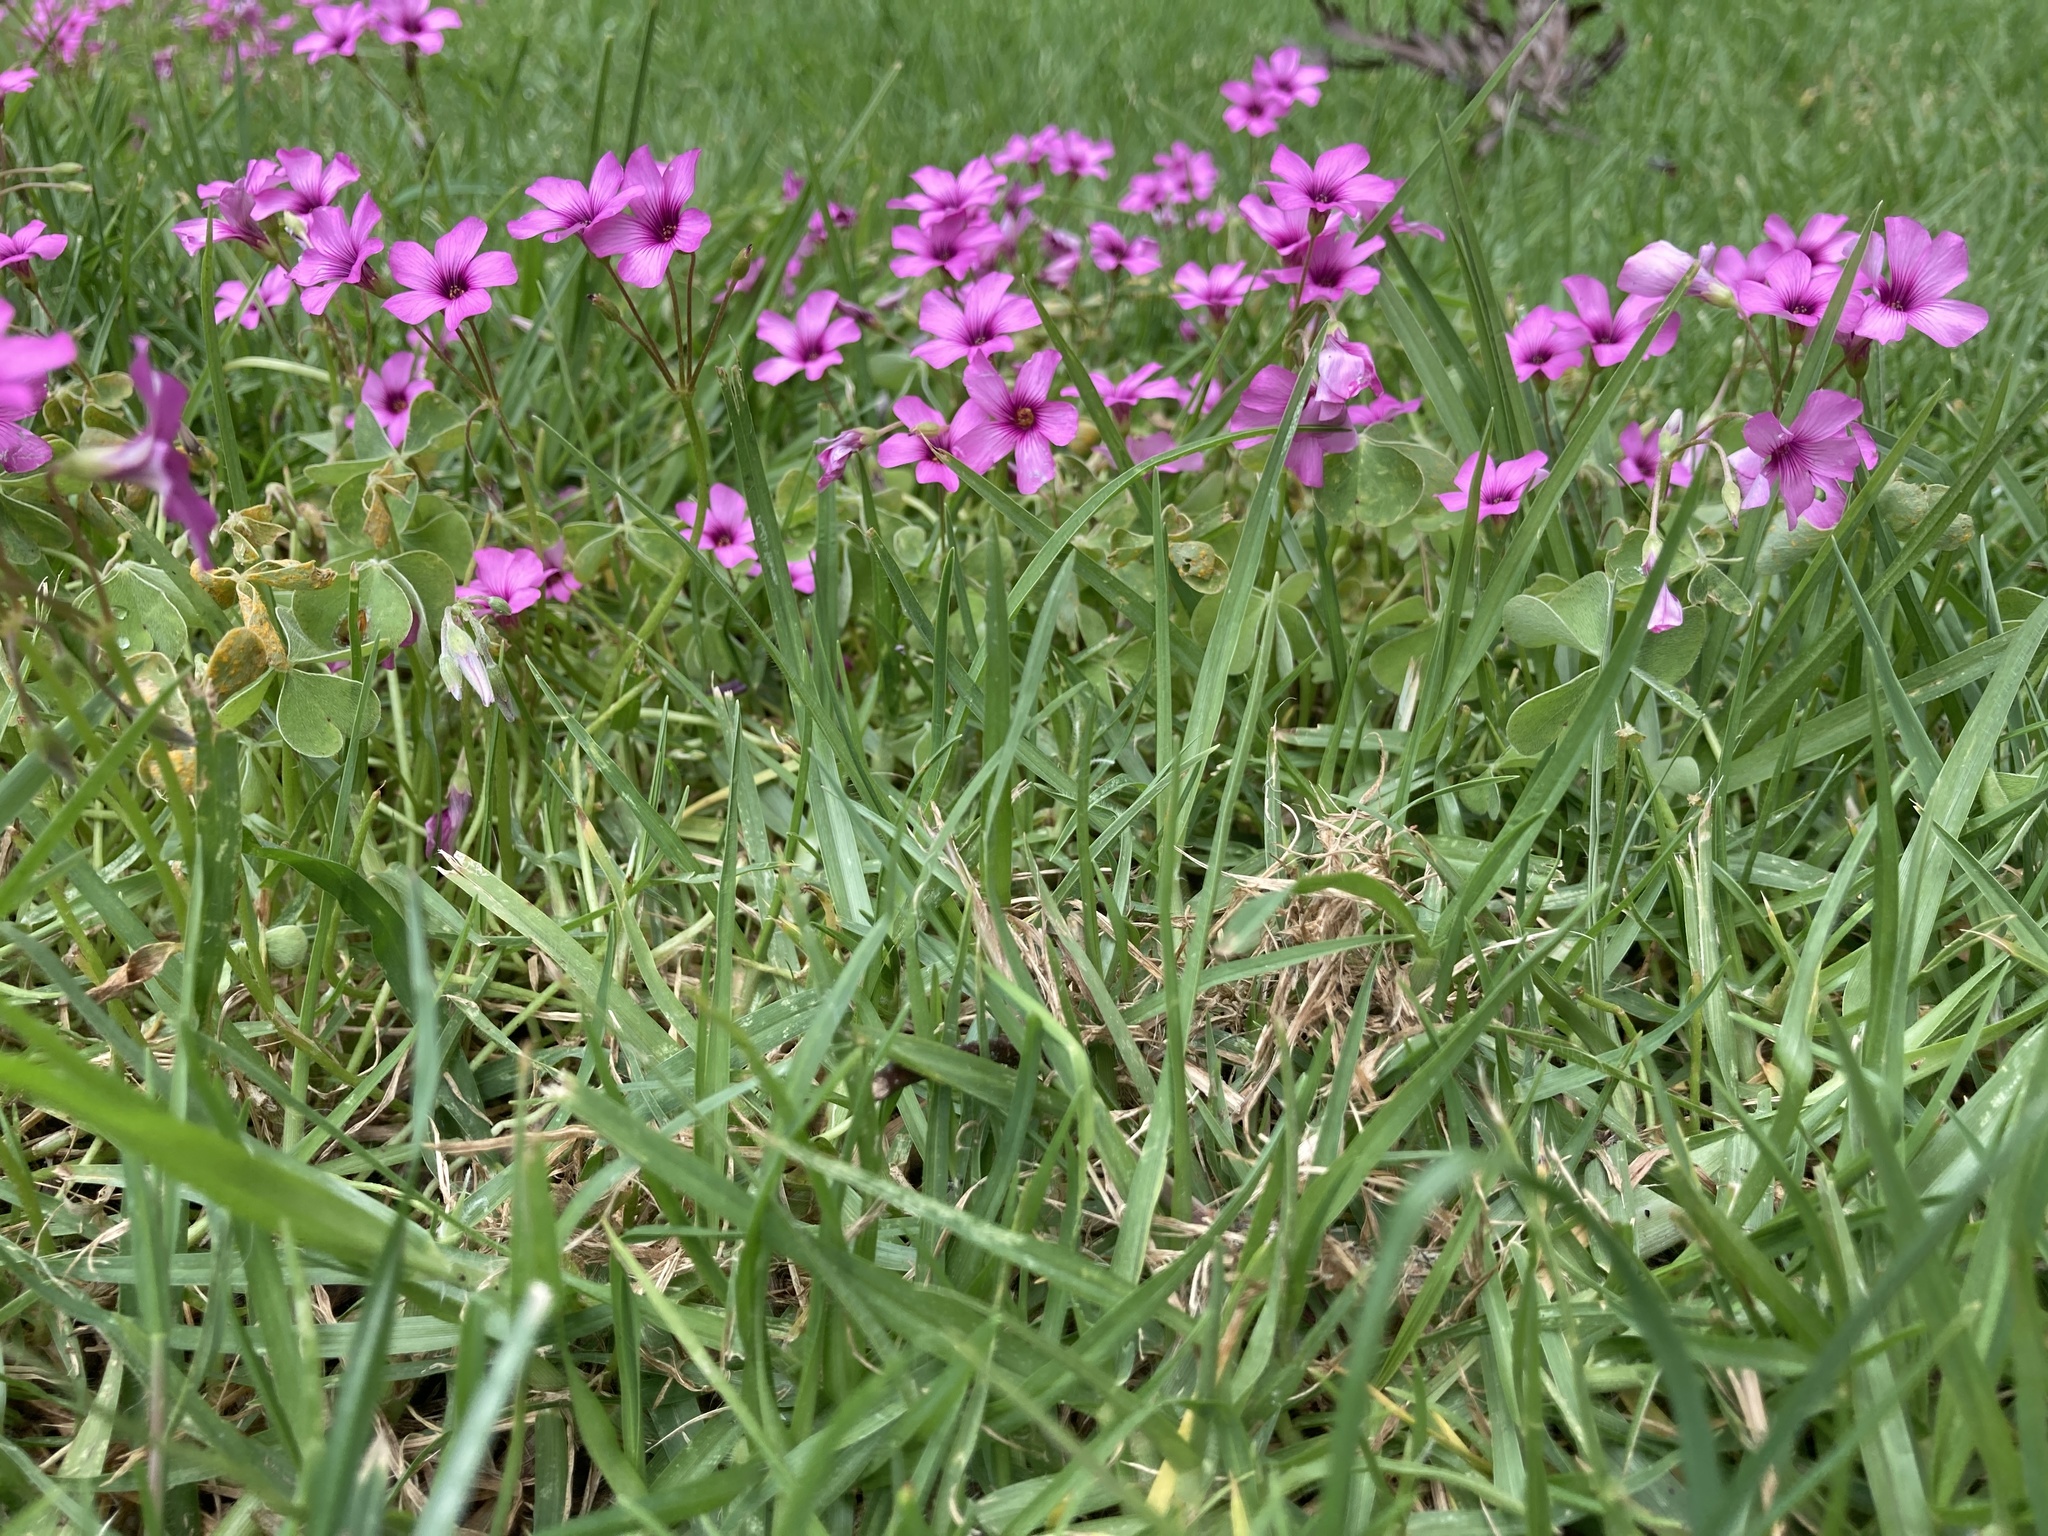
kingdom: Plantae
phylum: Tracheophyta
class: Magnoliopsida
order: Oxalidales
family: Oxalidaceae
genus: Oxalis
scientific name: Oxalis articulata
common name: Pink-sorrel
